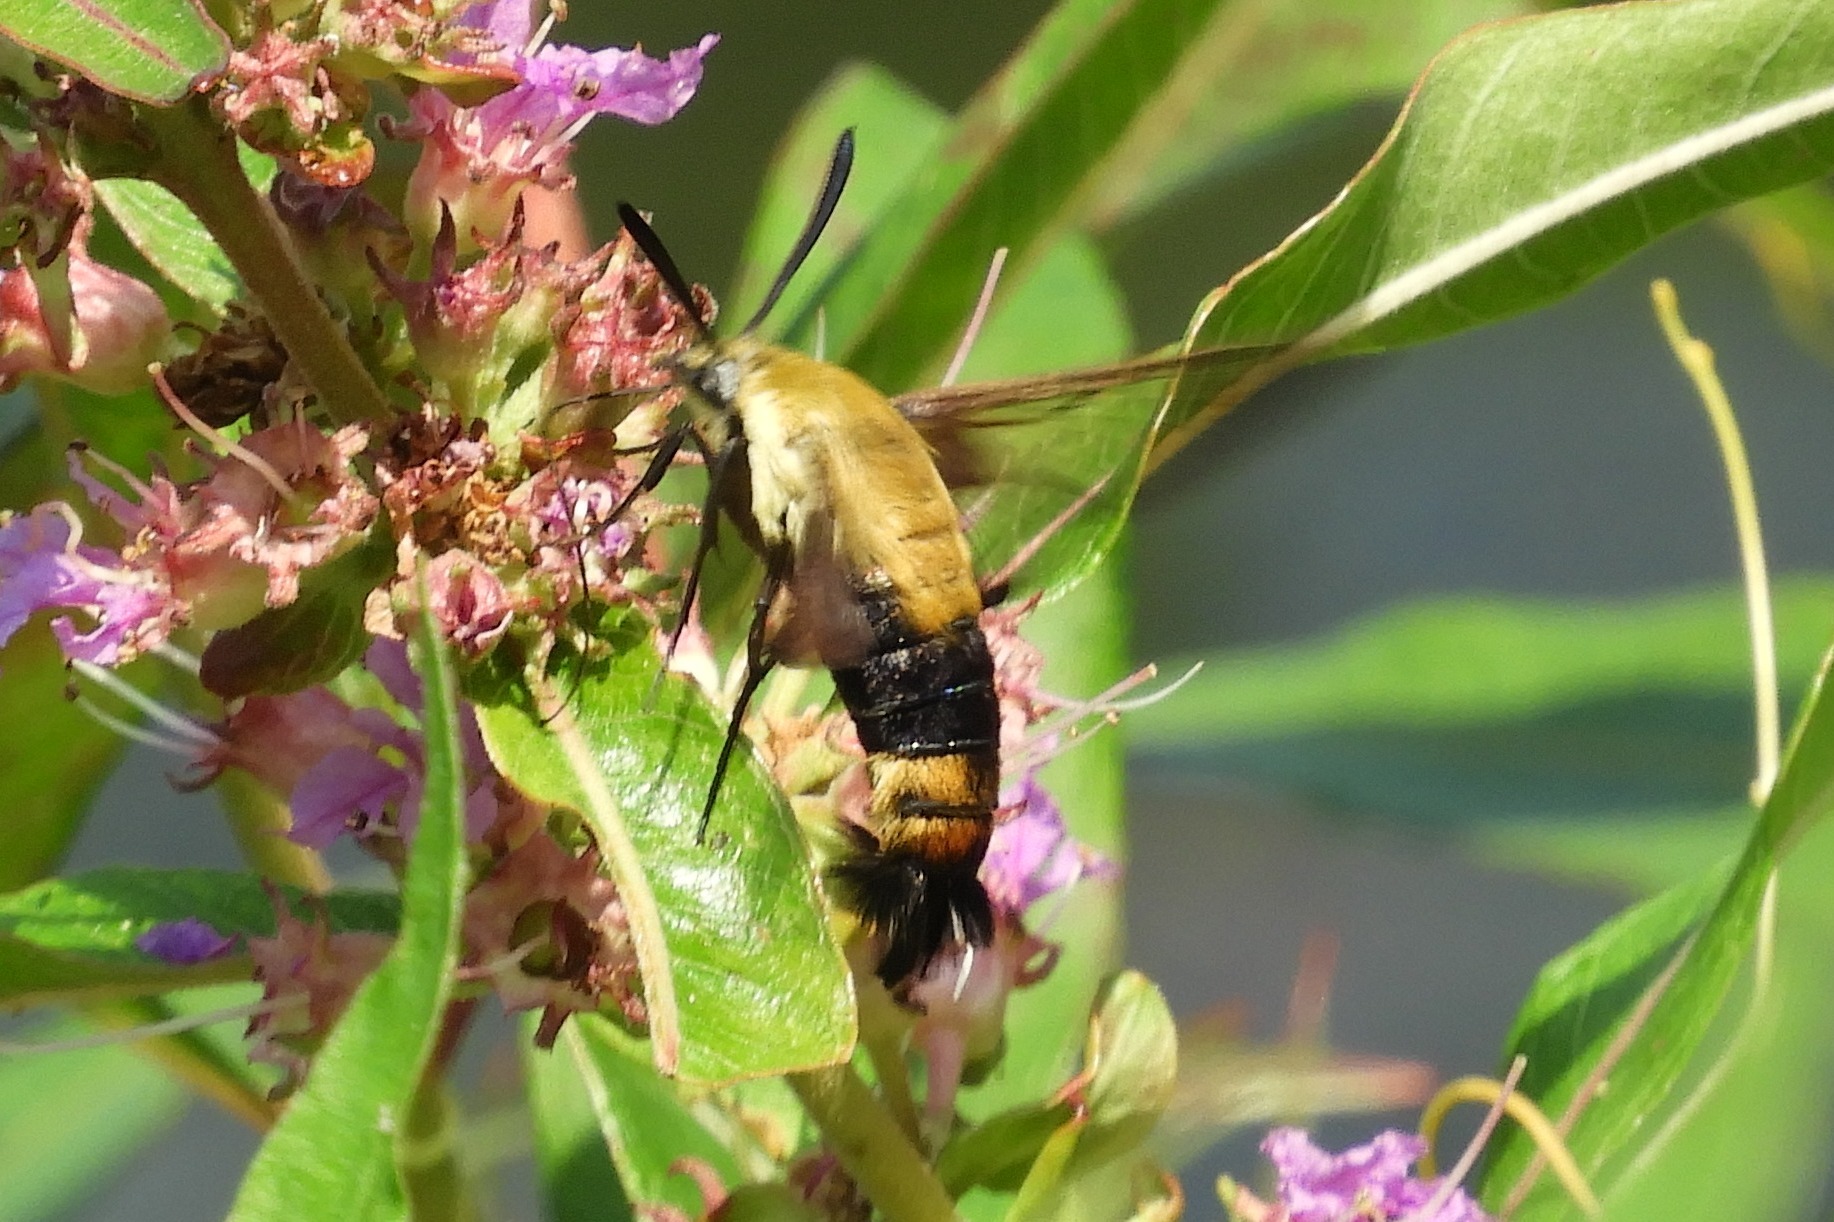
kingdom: Animalia
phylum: Arthropoda
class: Insecta
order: Lepidoptera
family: Sphingidae
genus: Hemaris
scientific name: Hemaris diffinis
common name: Bumblebee moth
